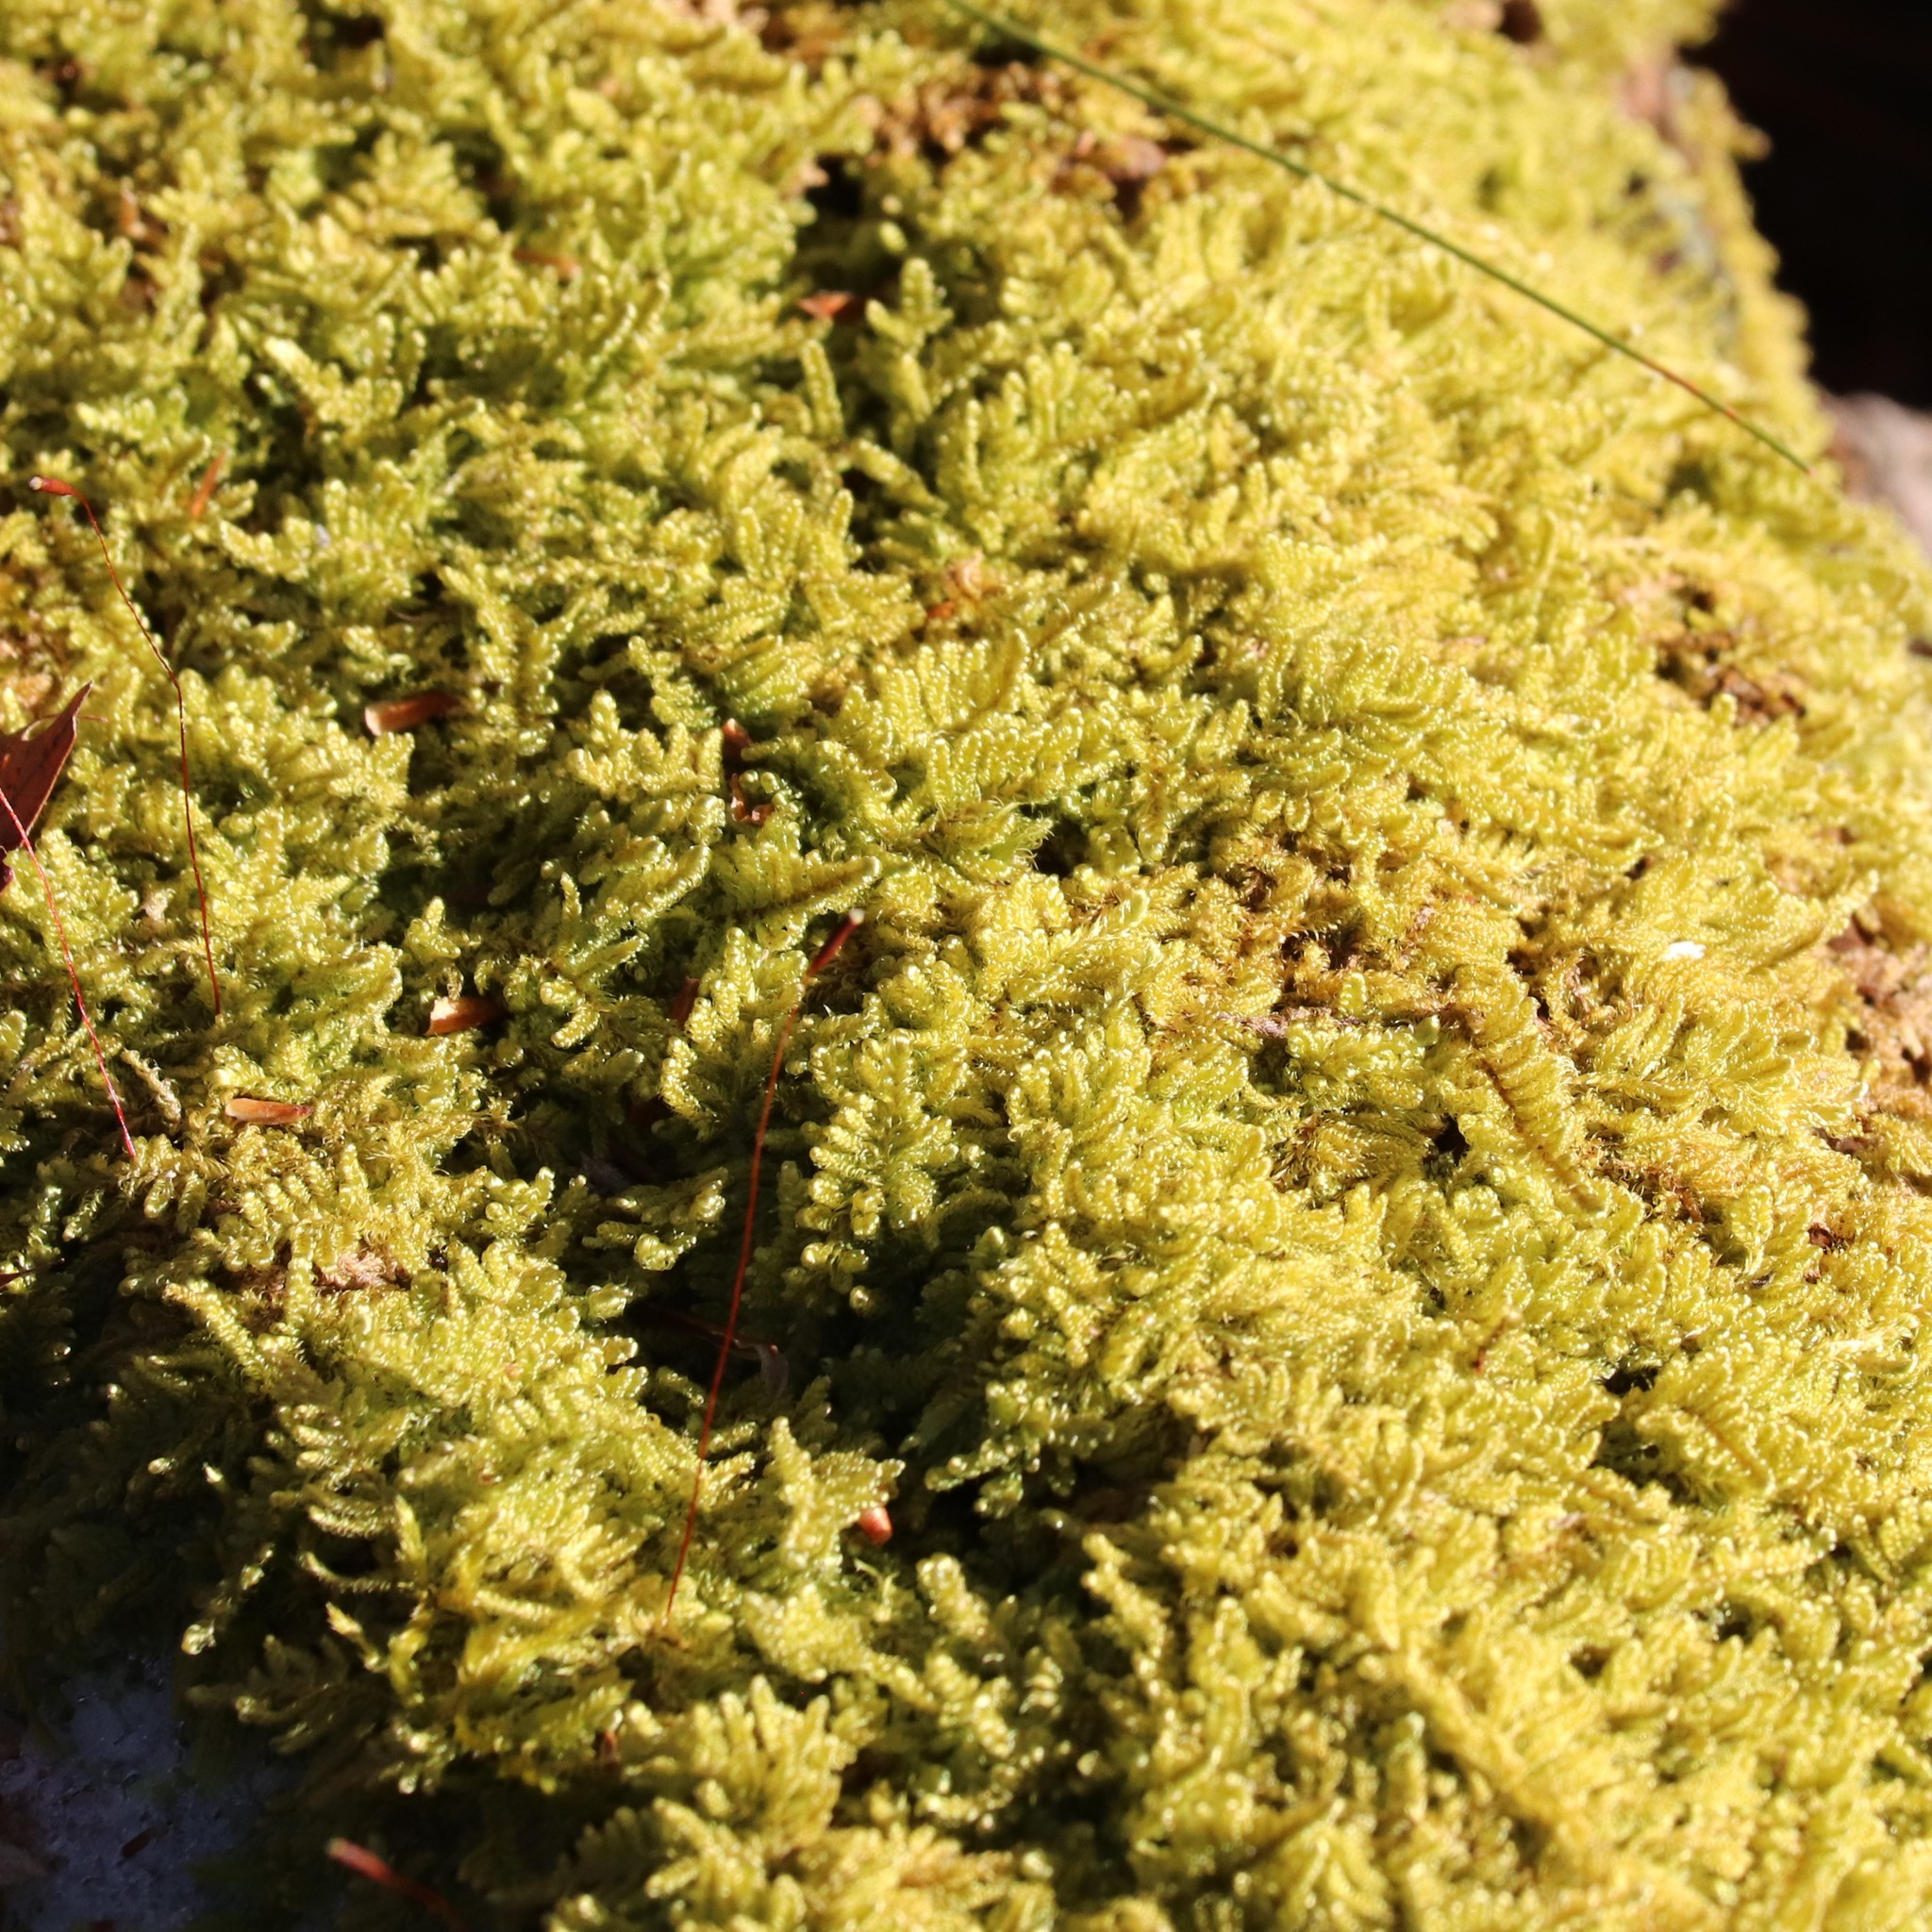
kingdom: Plantae
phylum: Bryophyta
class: Bryopsida
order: Hypnales
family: Callicladiaceae
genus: Callicladium
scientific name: Callicladium imponens
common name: Brocade moss
